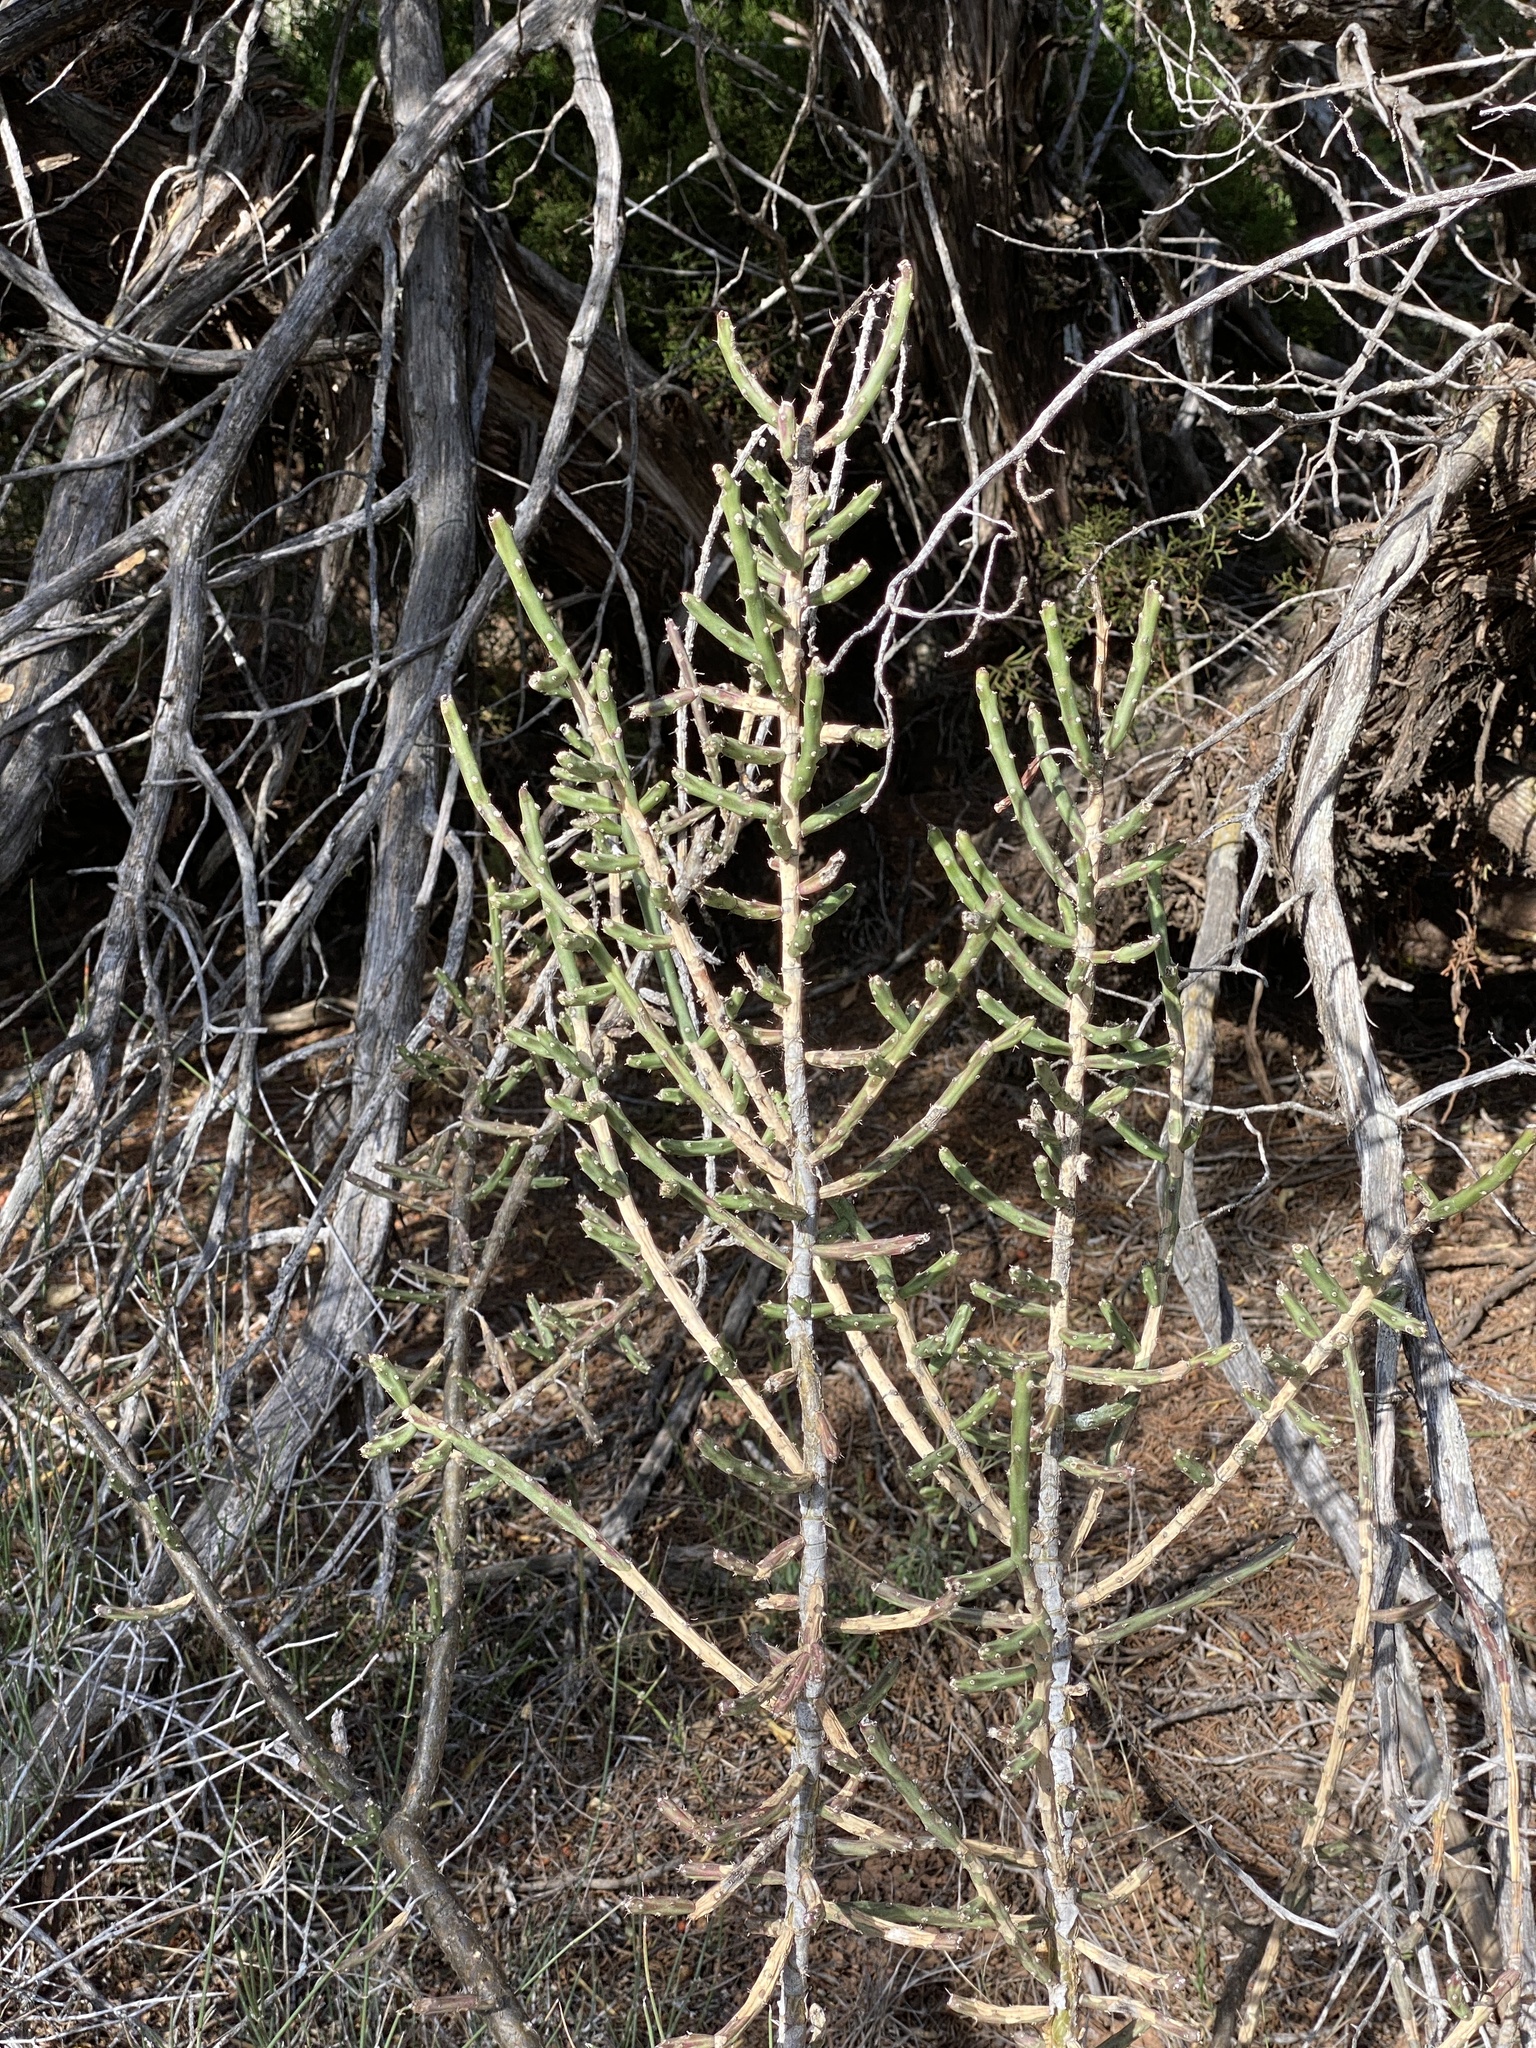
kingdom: Plantae
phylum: Tracheophyta
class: Magnoliopsida
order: Caryophyllales
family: Cactaceae
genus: Cylindropuntia
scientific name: Cylindropuntia leptocaulis
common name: Christmas cactus
